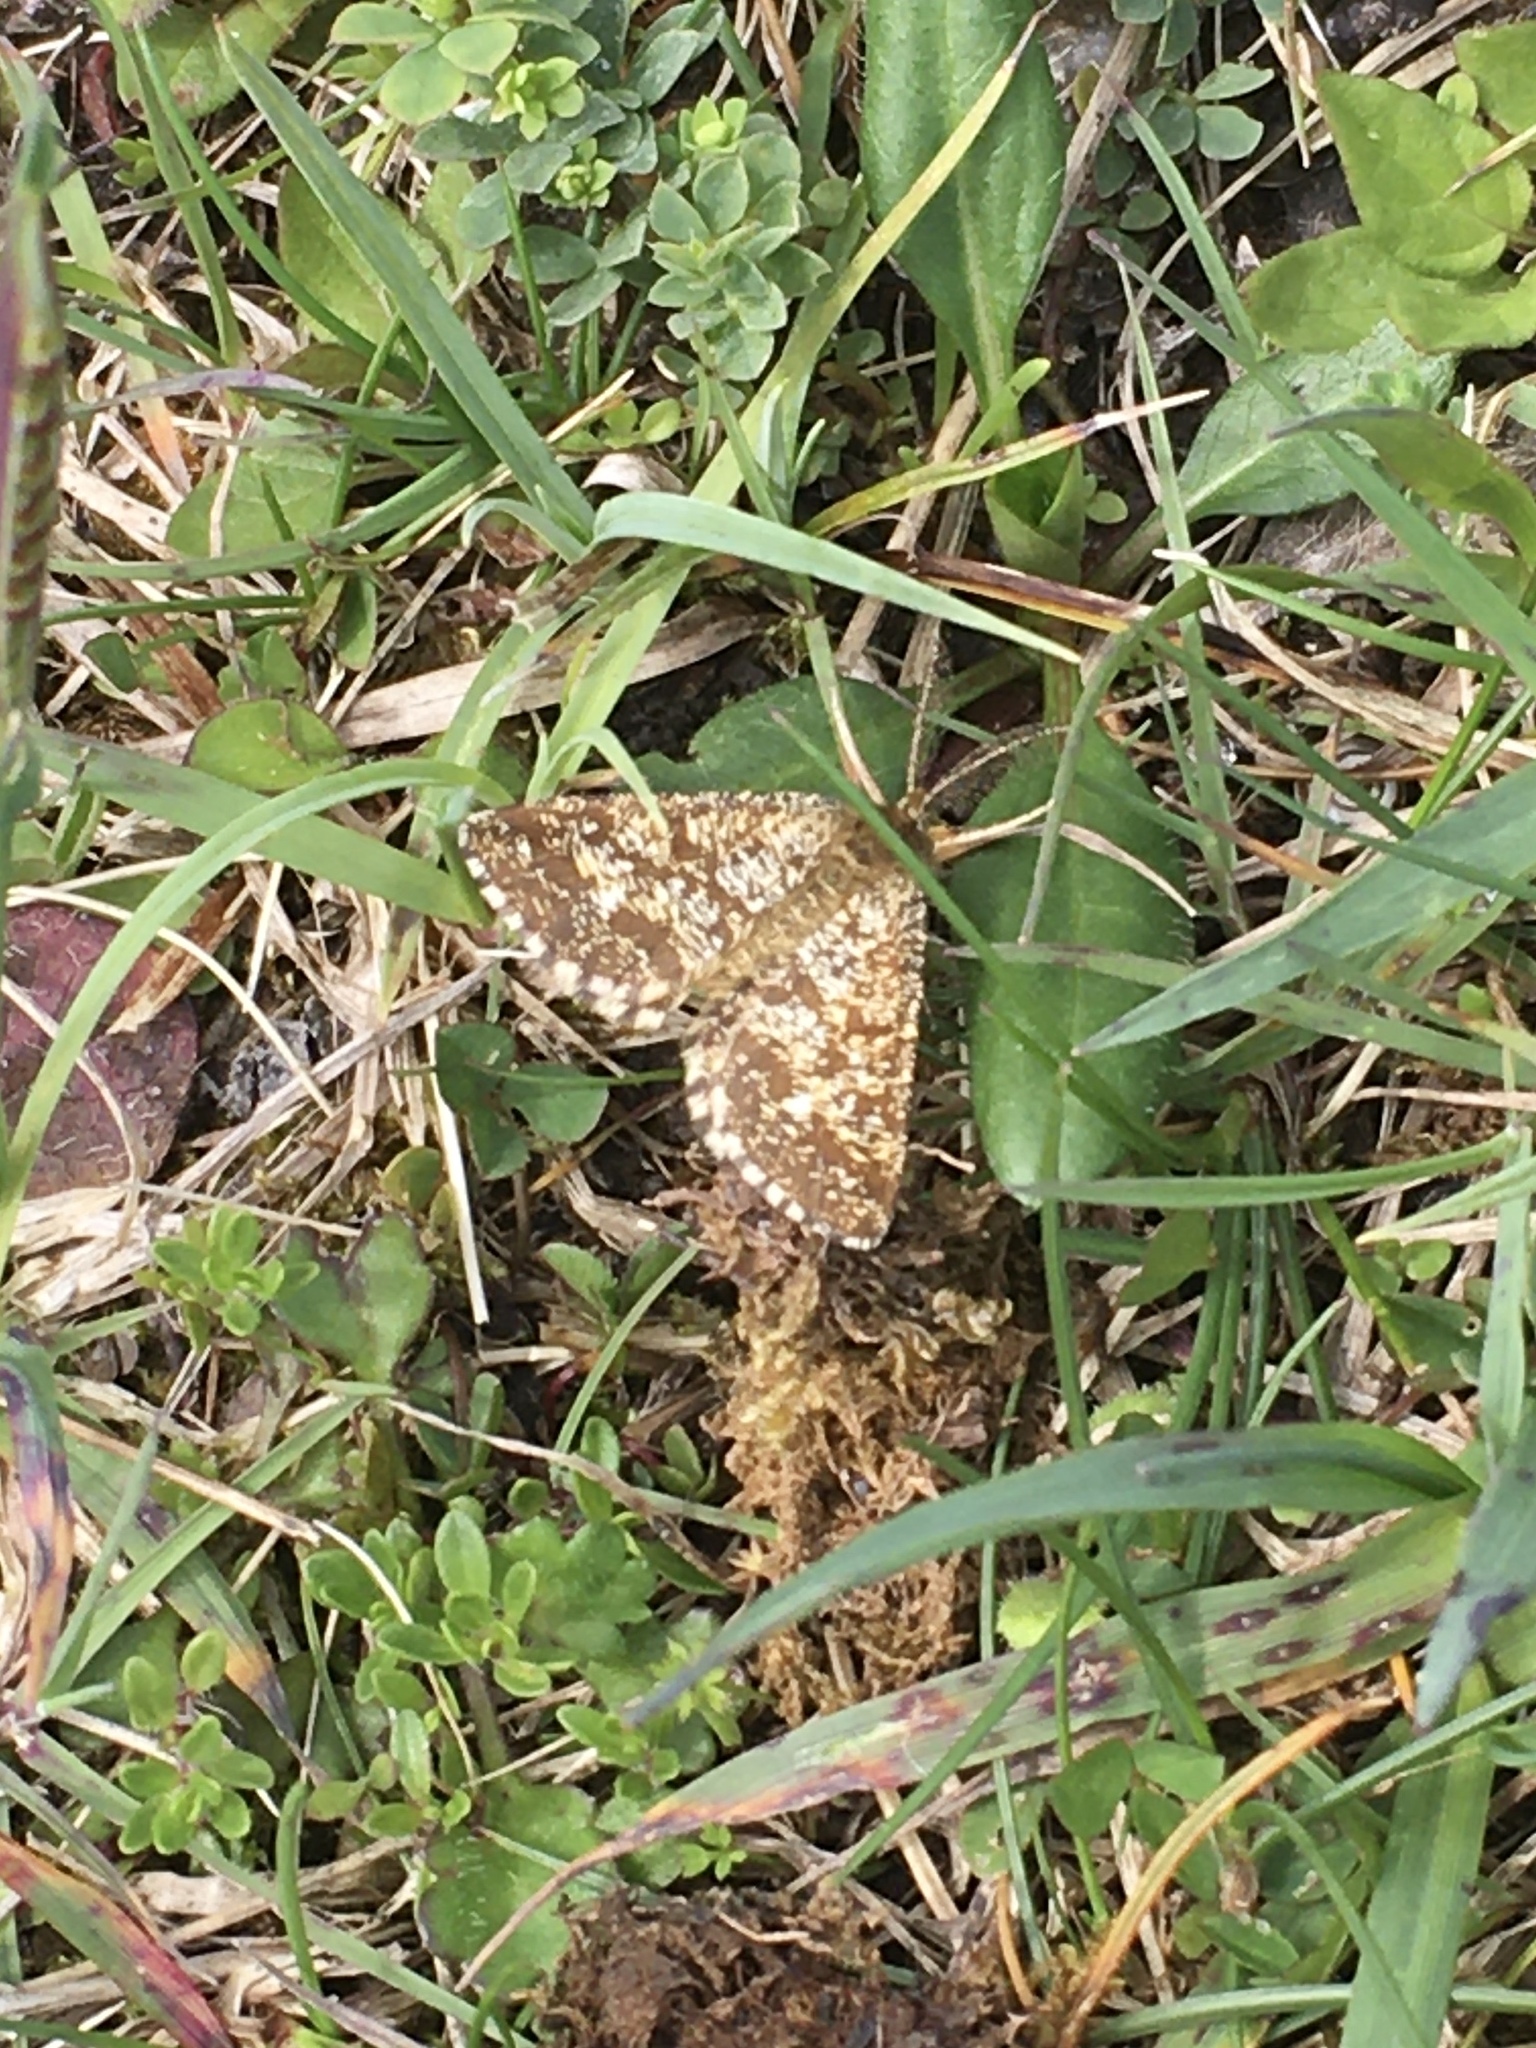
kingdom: Animalia
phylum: Arthropoda
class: Insecta
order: Lepidoptera
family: Geometridae
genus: Ematurga
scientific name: Ematurga atomaria
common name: Common heath
